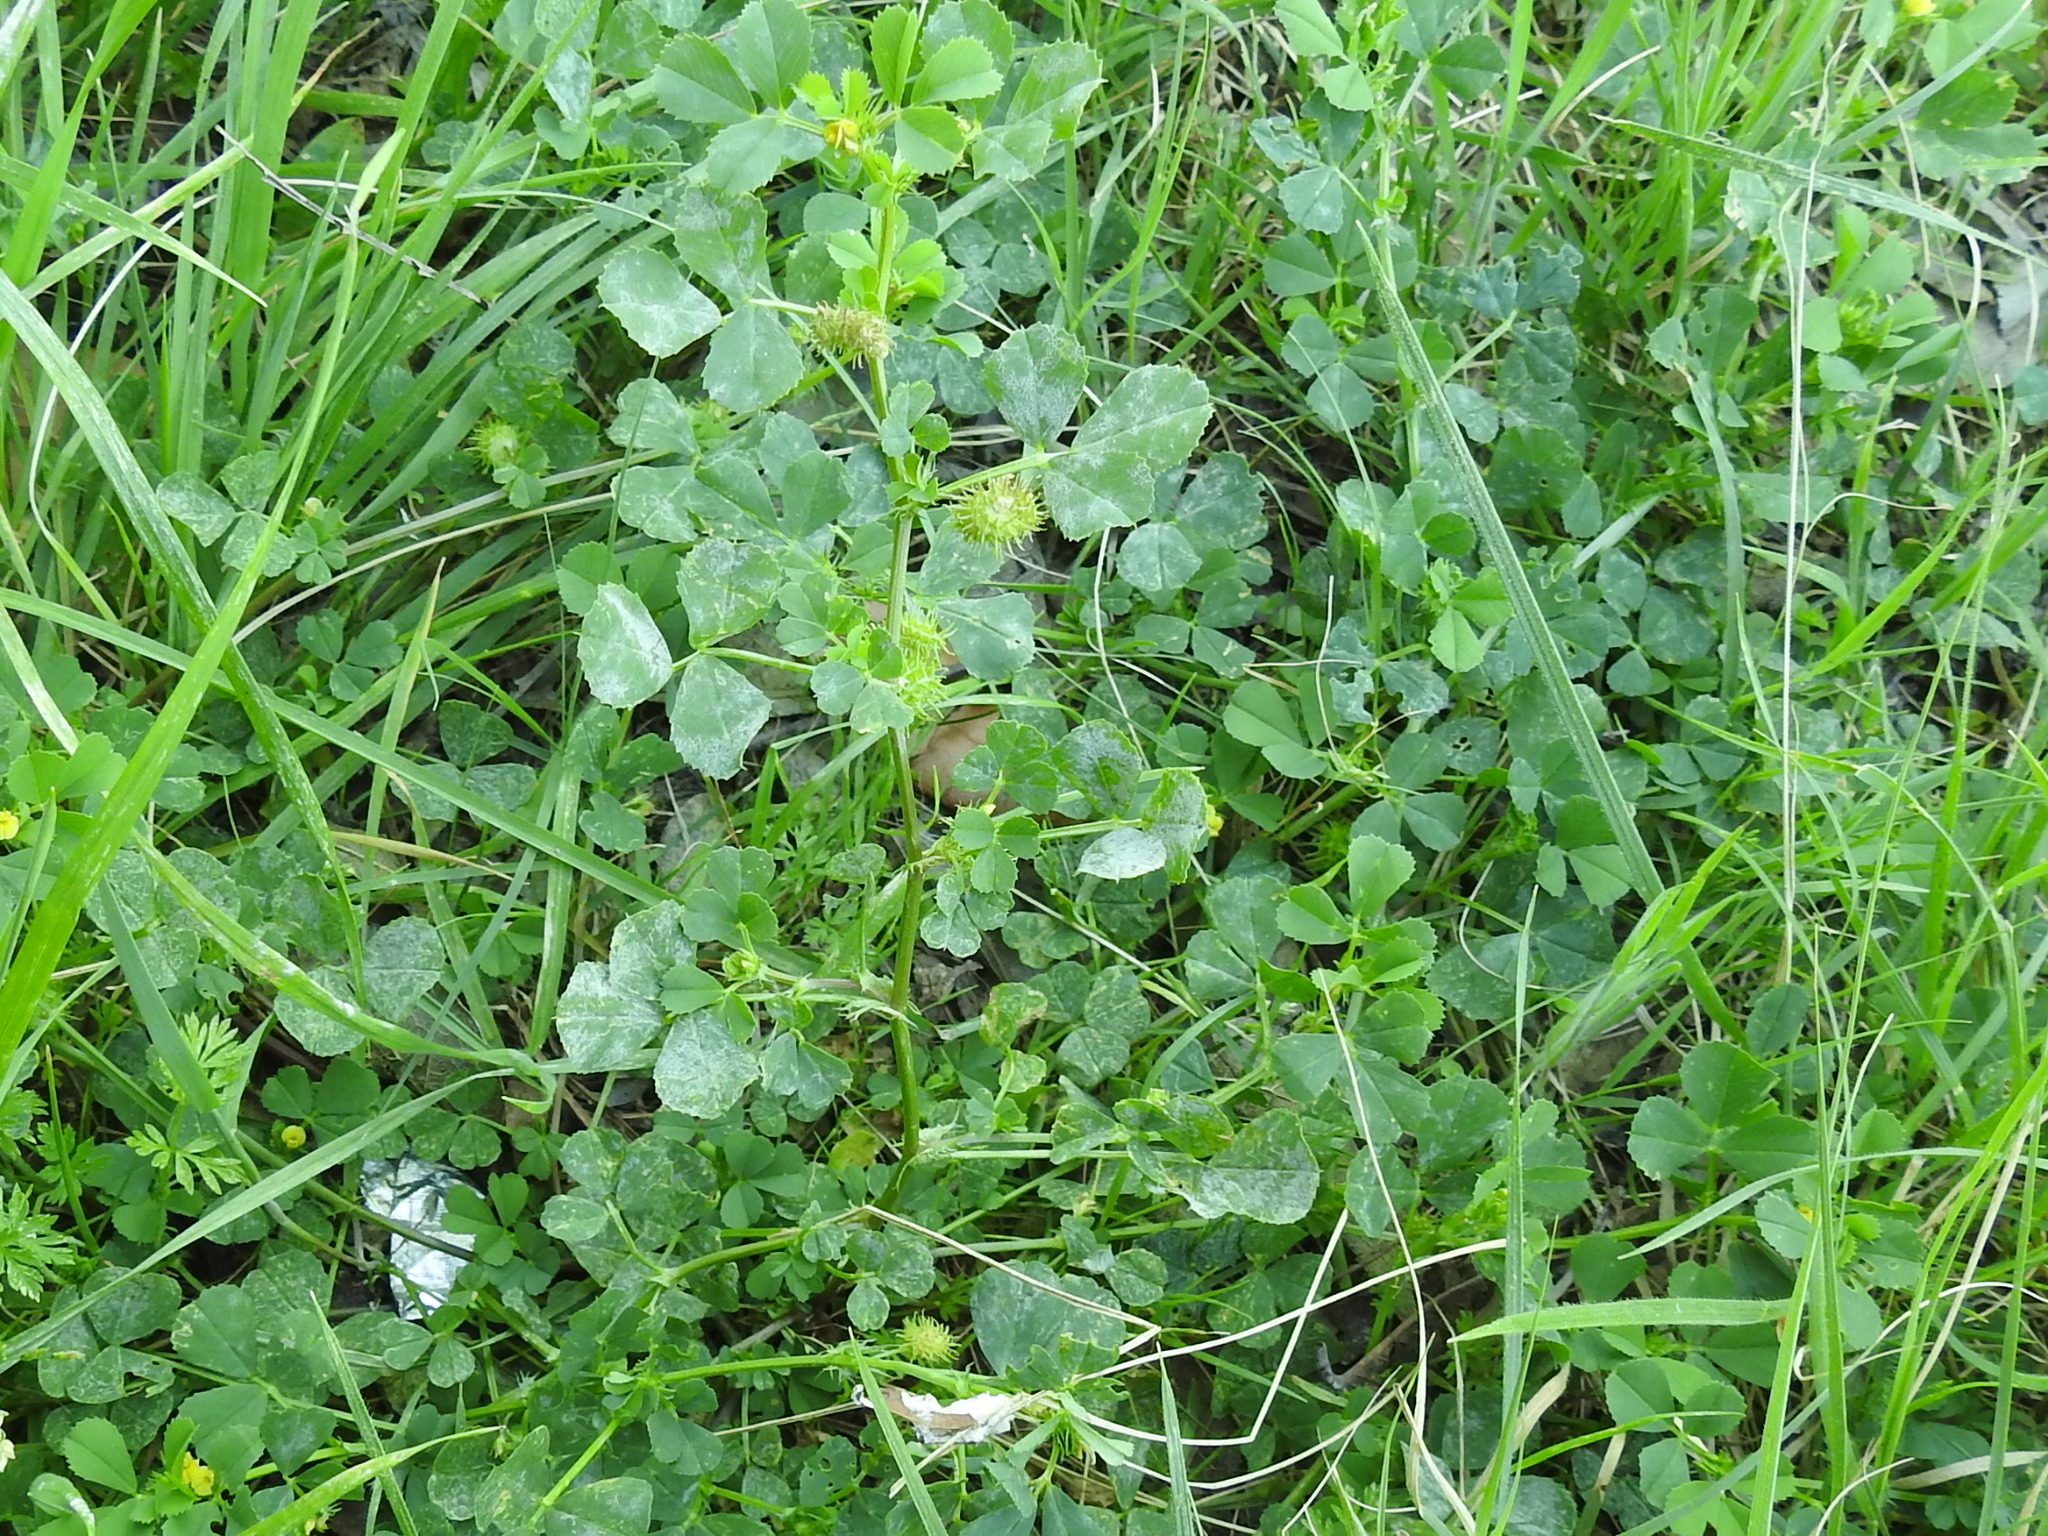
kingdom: Plantae
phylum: Tracheophyta
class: Magnoliopsida
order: Fabales
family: Fabaceae
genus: Medicago
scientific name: Medicago polymorpha
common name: Burclover
